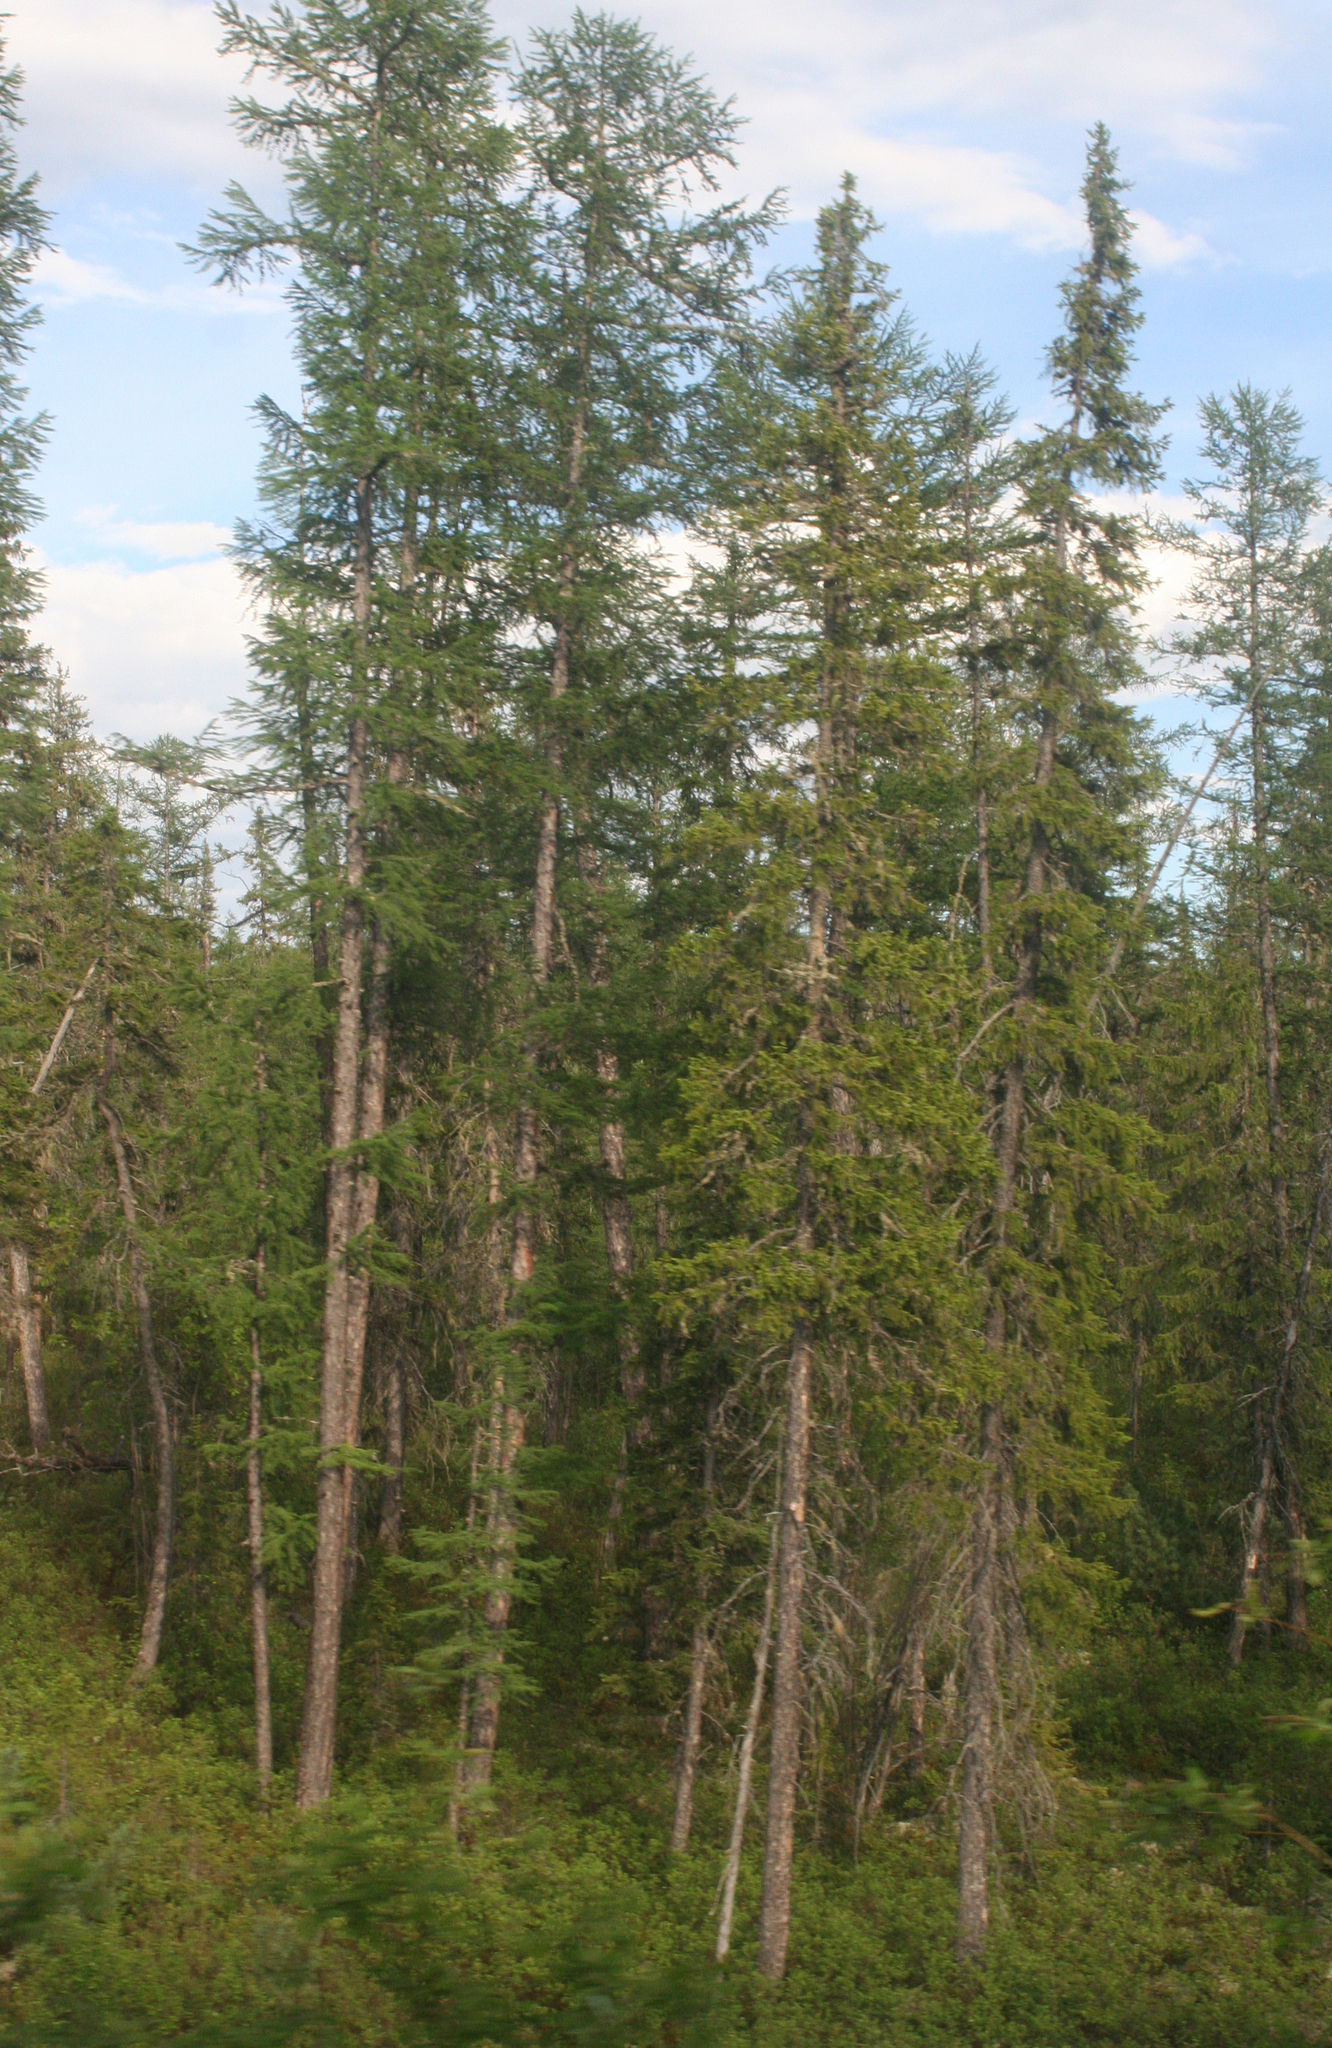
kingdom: Plantae
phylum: Tracheophyta
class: Pinopsida
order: Pinales
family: Pinaceae
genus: Picea
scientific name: Picea obovata
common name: Siberian spruce
